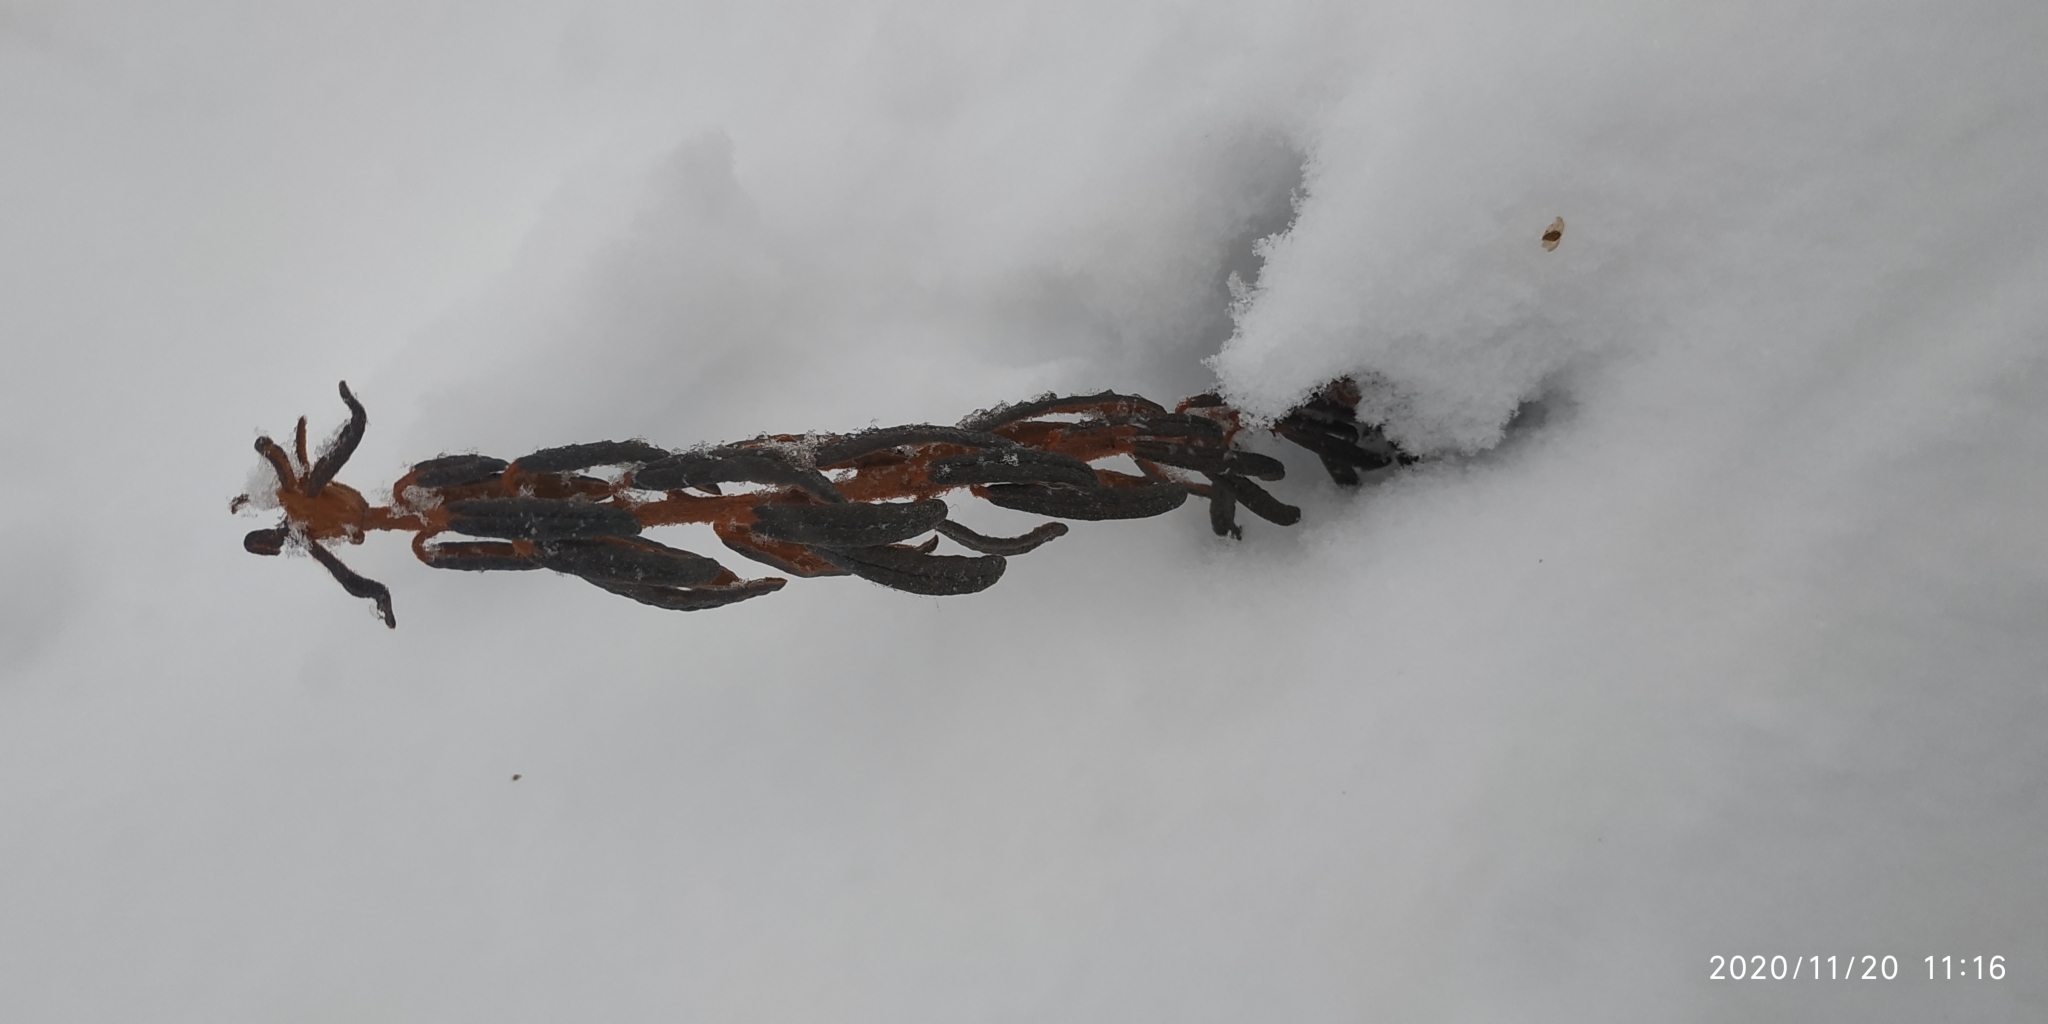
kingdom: Plantae
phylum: Tracheophyta
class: Magnoliopsida
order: Ericales
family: Ericaceae
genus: Rhododendron
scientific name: Rhododendron tomentosum
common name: Marsh labrador tea
